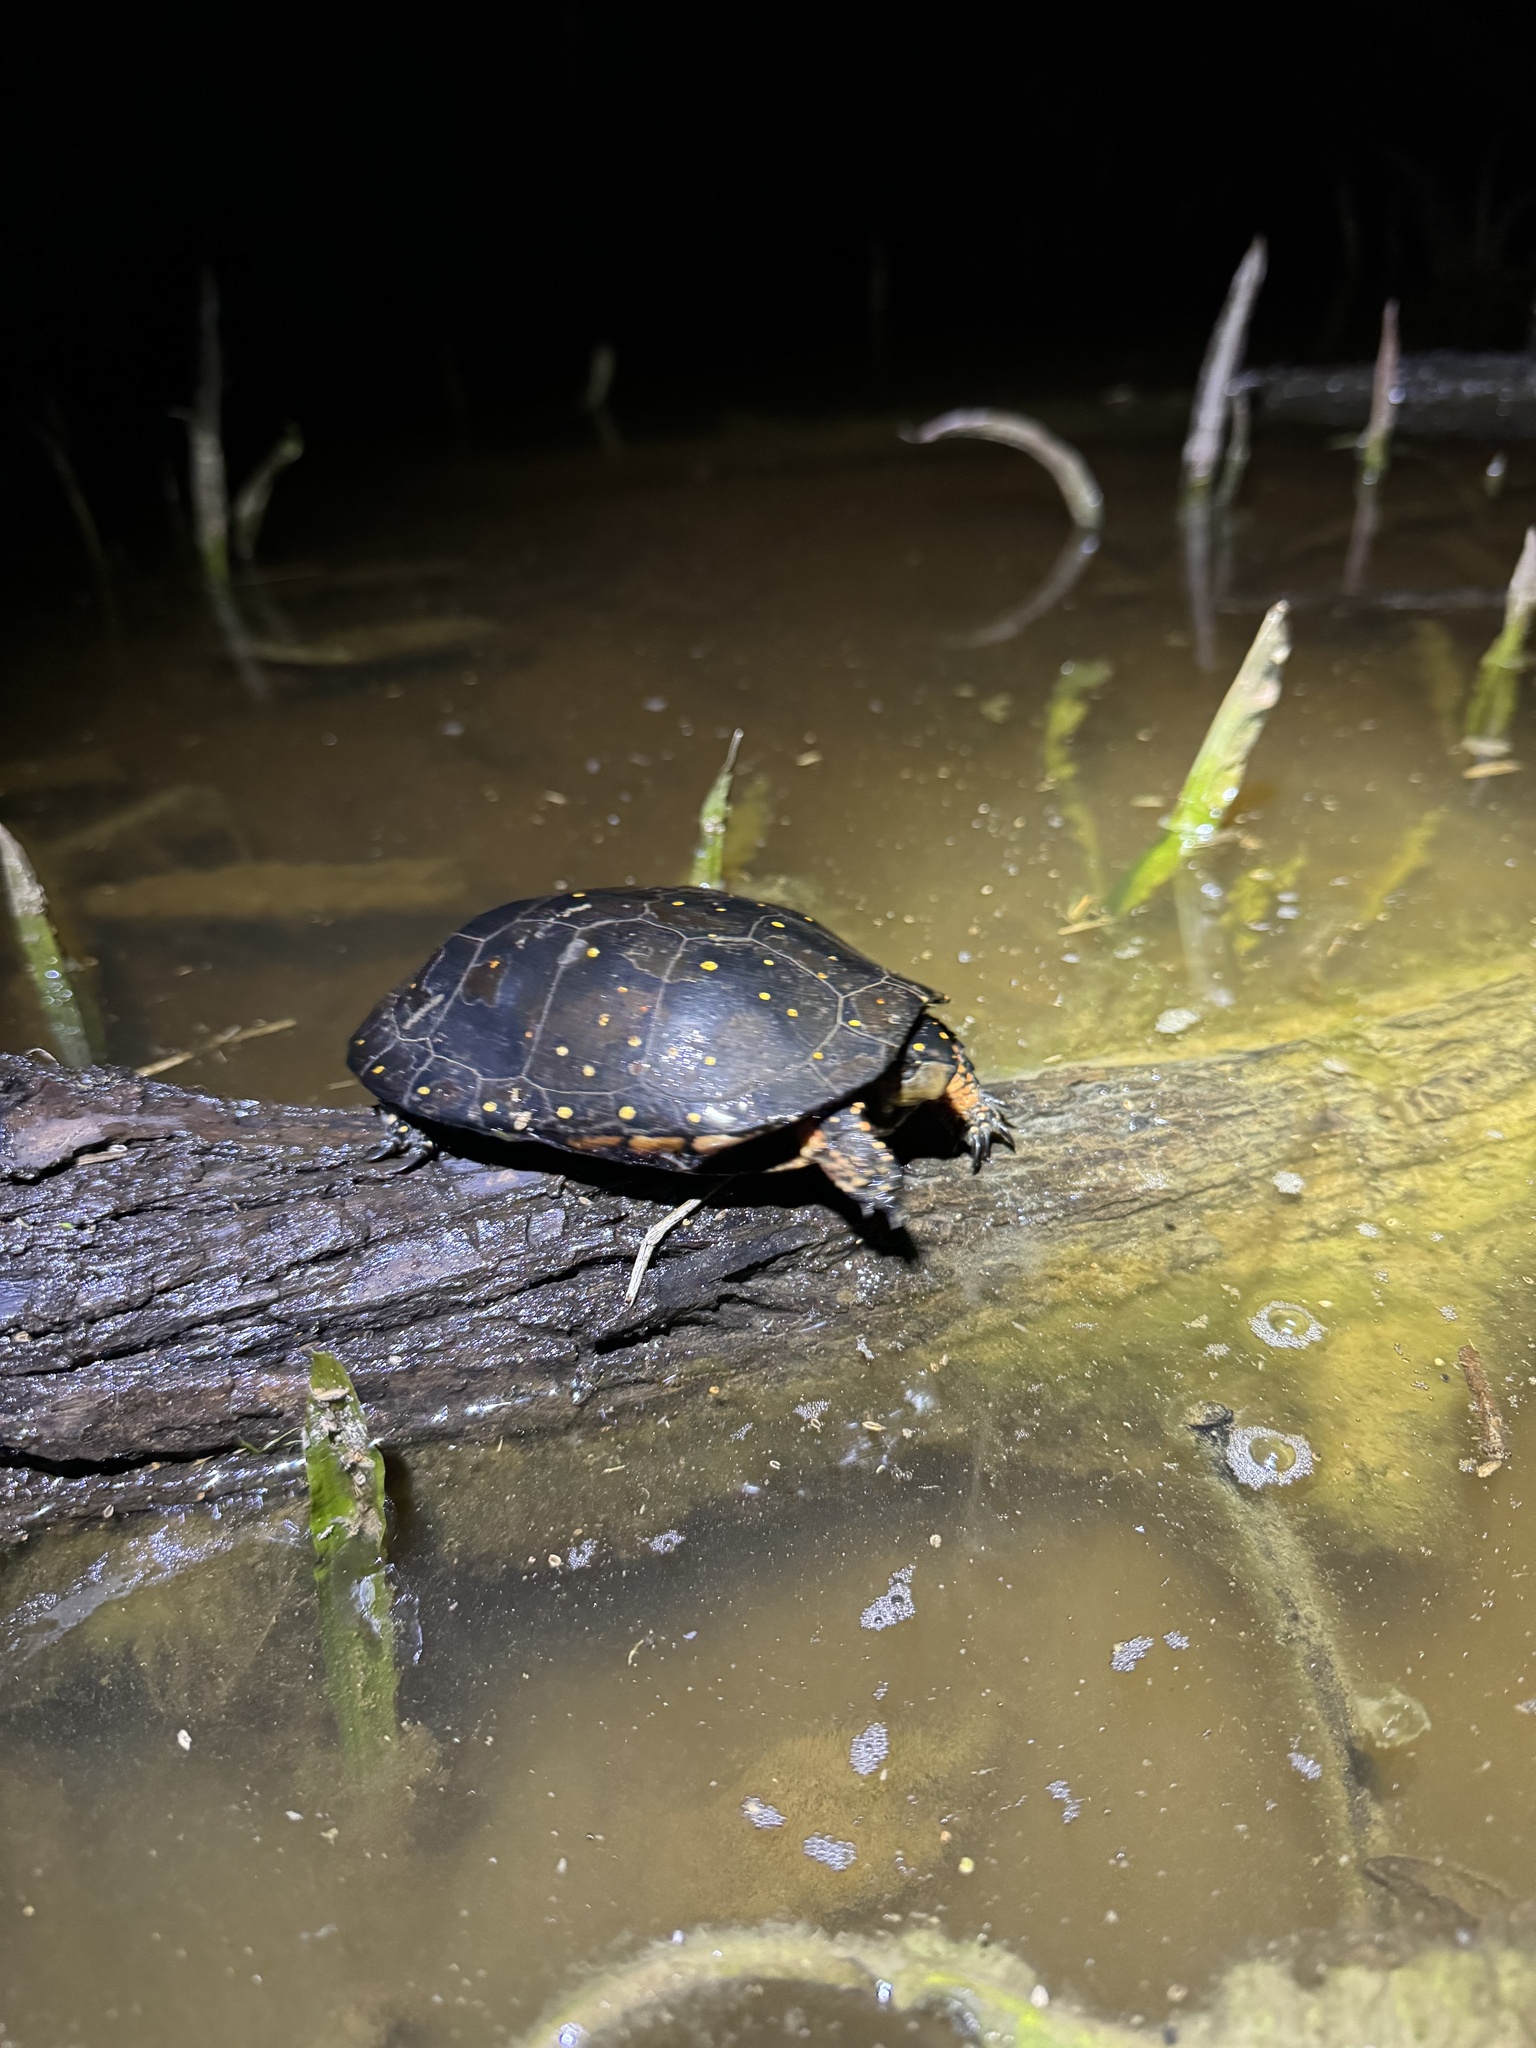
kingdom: Animalia
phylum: Chordata
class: Testudines
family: Emydidae
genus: Clemmys
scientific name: Clemmys guttata
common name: Spotted turtle
